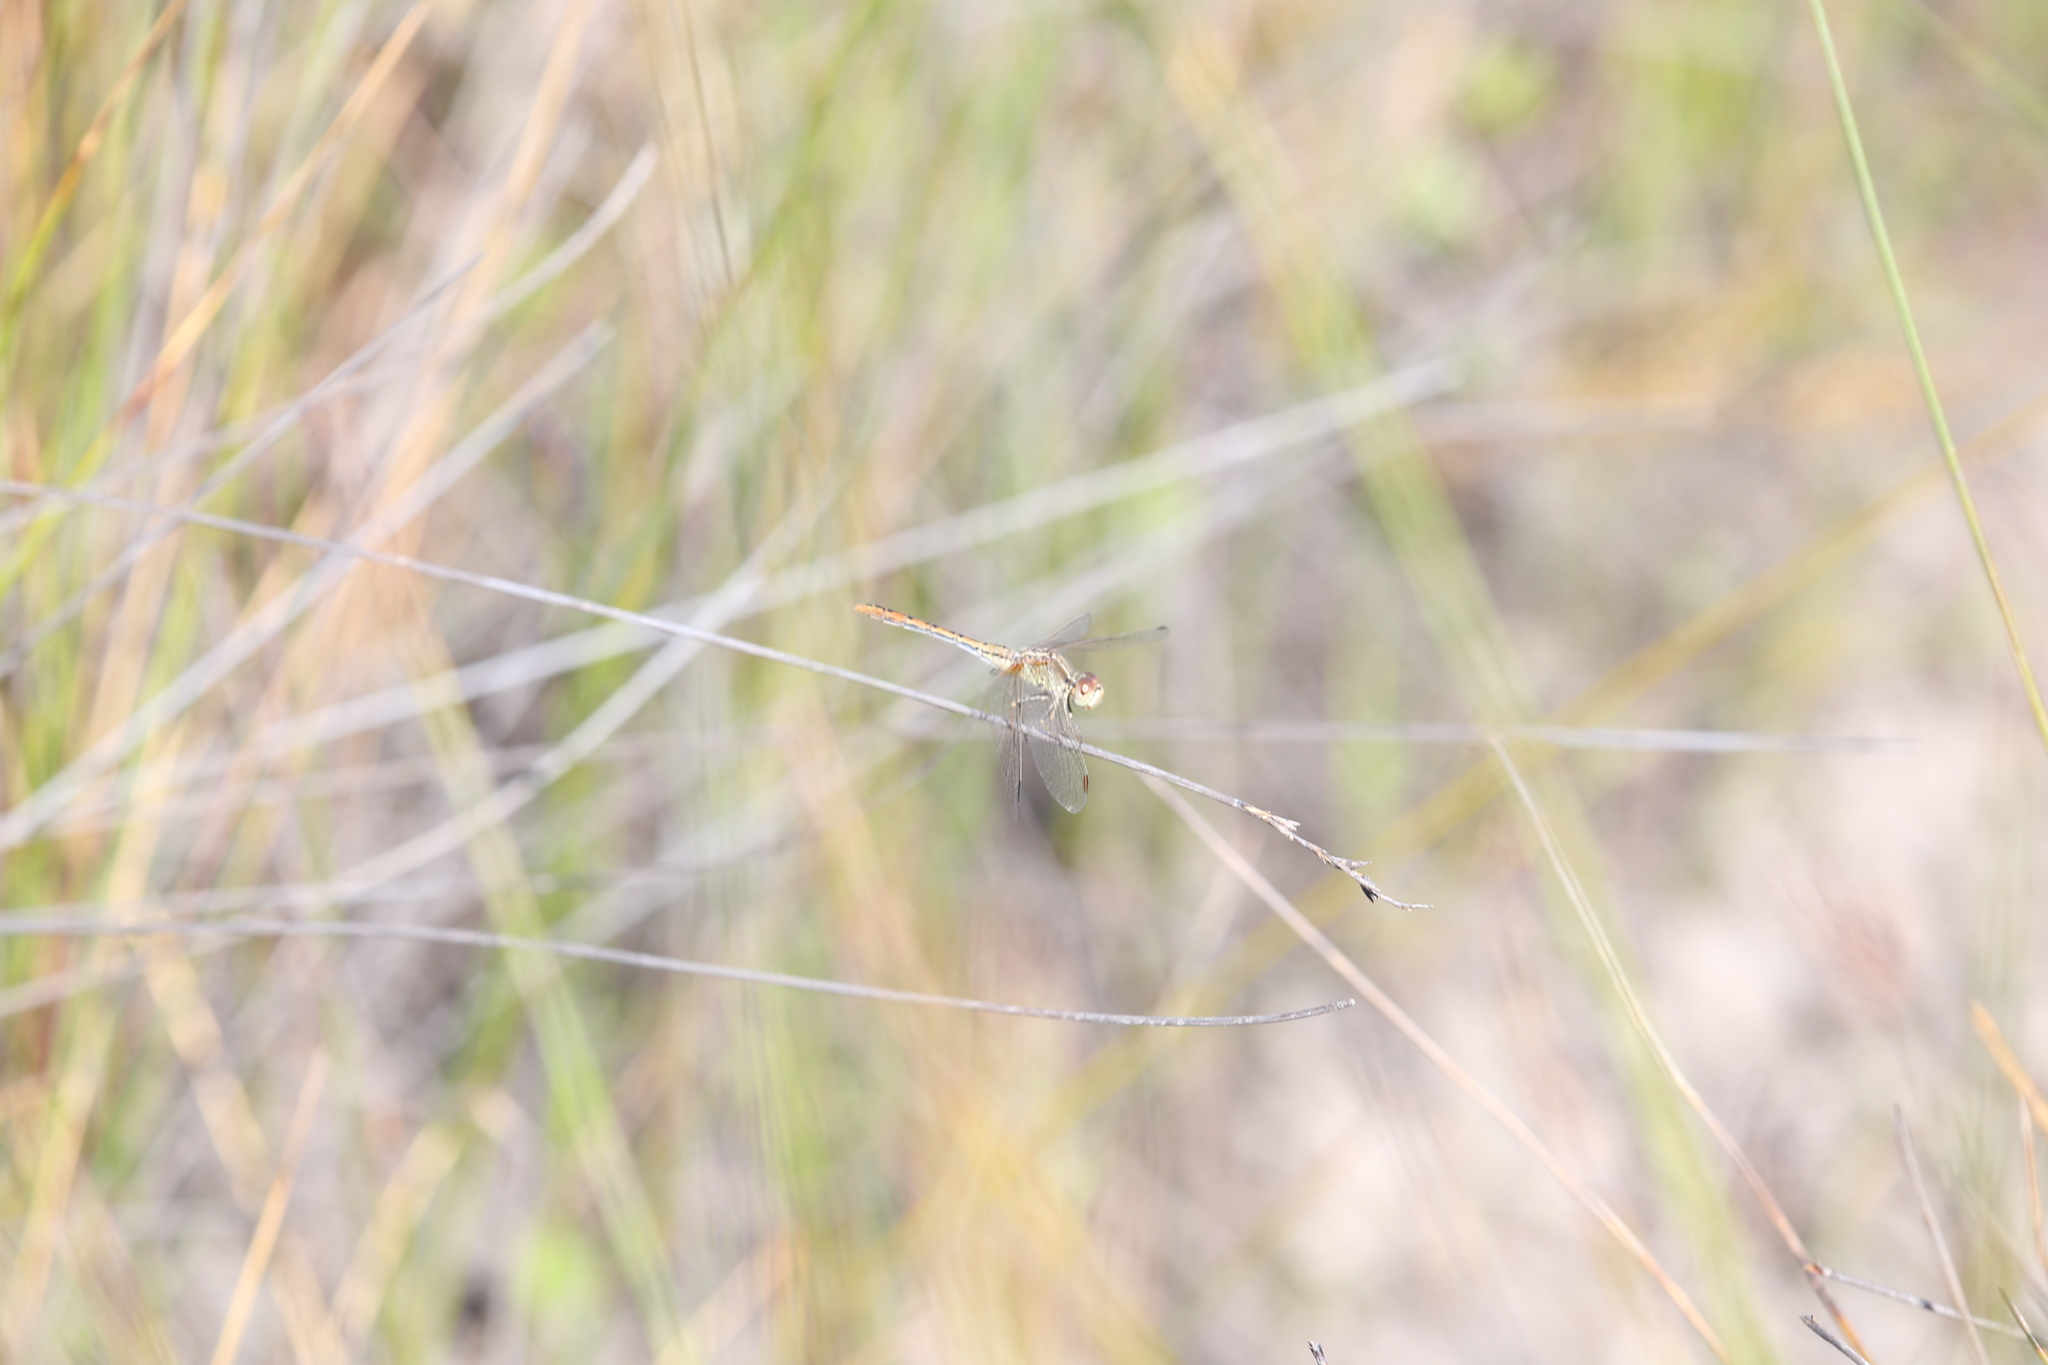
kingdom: Animalia
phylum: Arthropoda
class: Insecta
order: Odonata
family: Libellulidae
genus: Diplacodes
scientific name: Diplacodes bipunctata
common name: Red percher dragonfly
